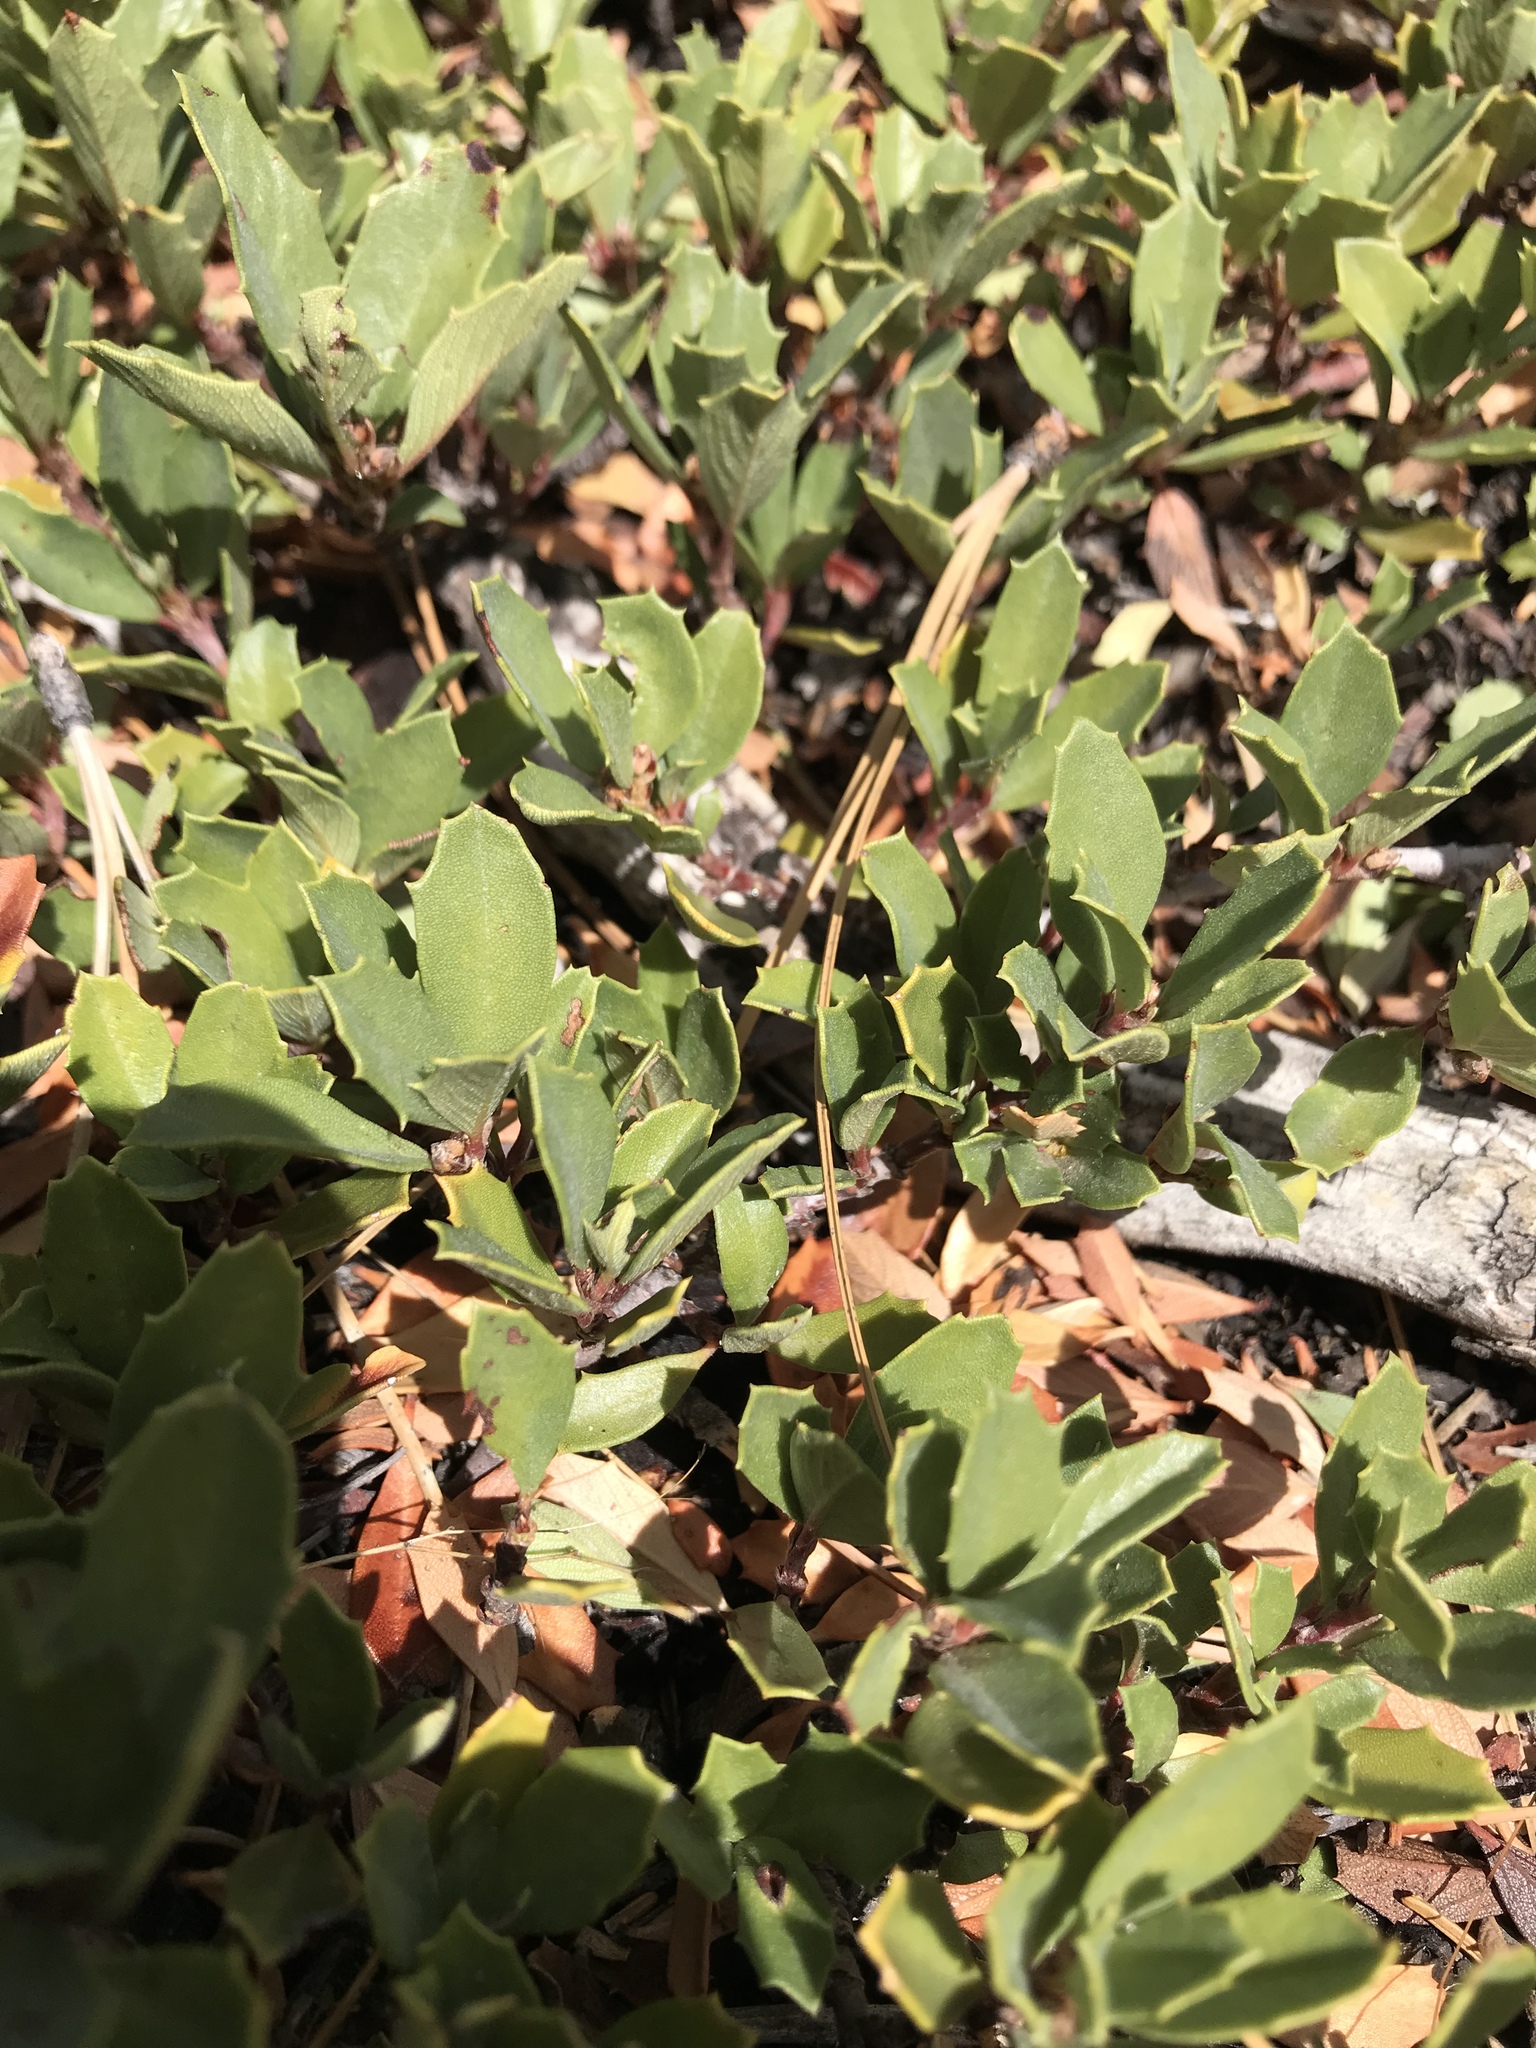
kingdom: Plantae
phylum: Tracheophyta
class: Magnoliopsida
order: Rosales
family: Rhamnaceae
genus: Ceanothus
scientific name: Ceanothus prostratus
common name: Mahala-mat
